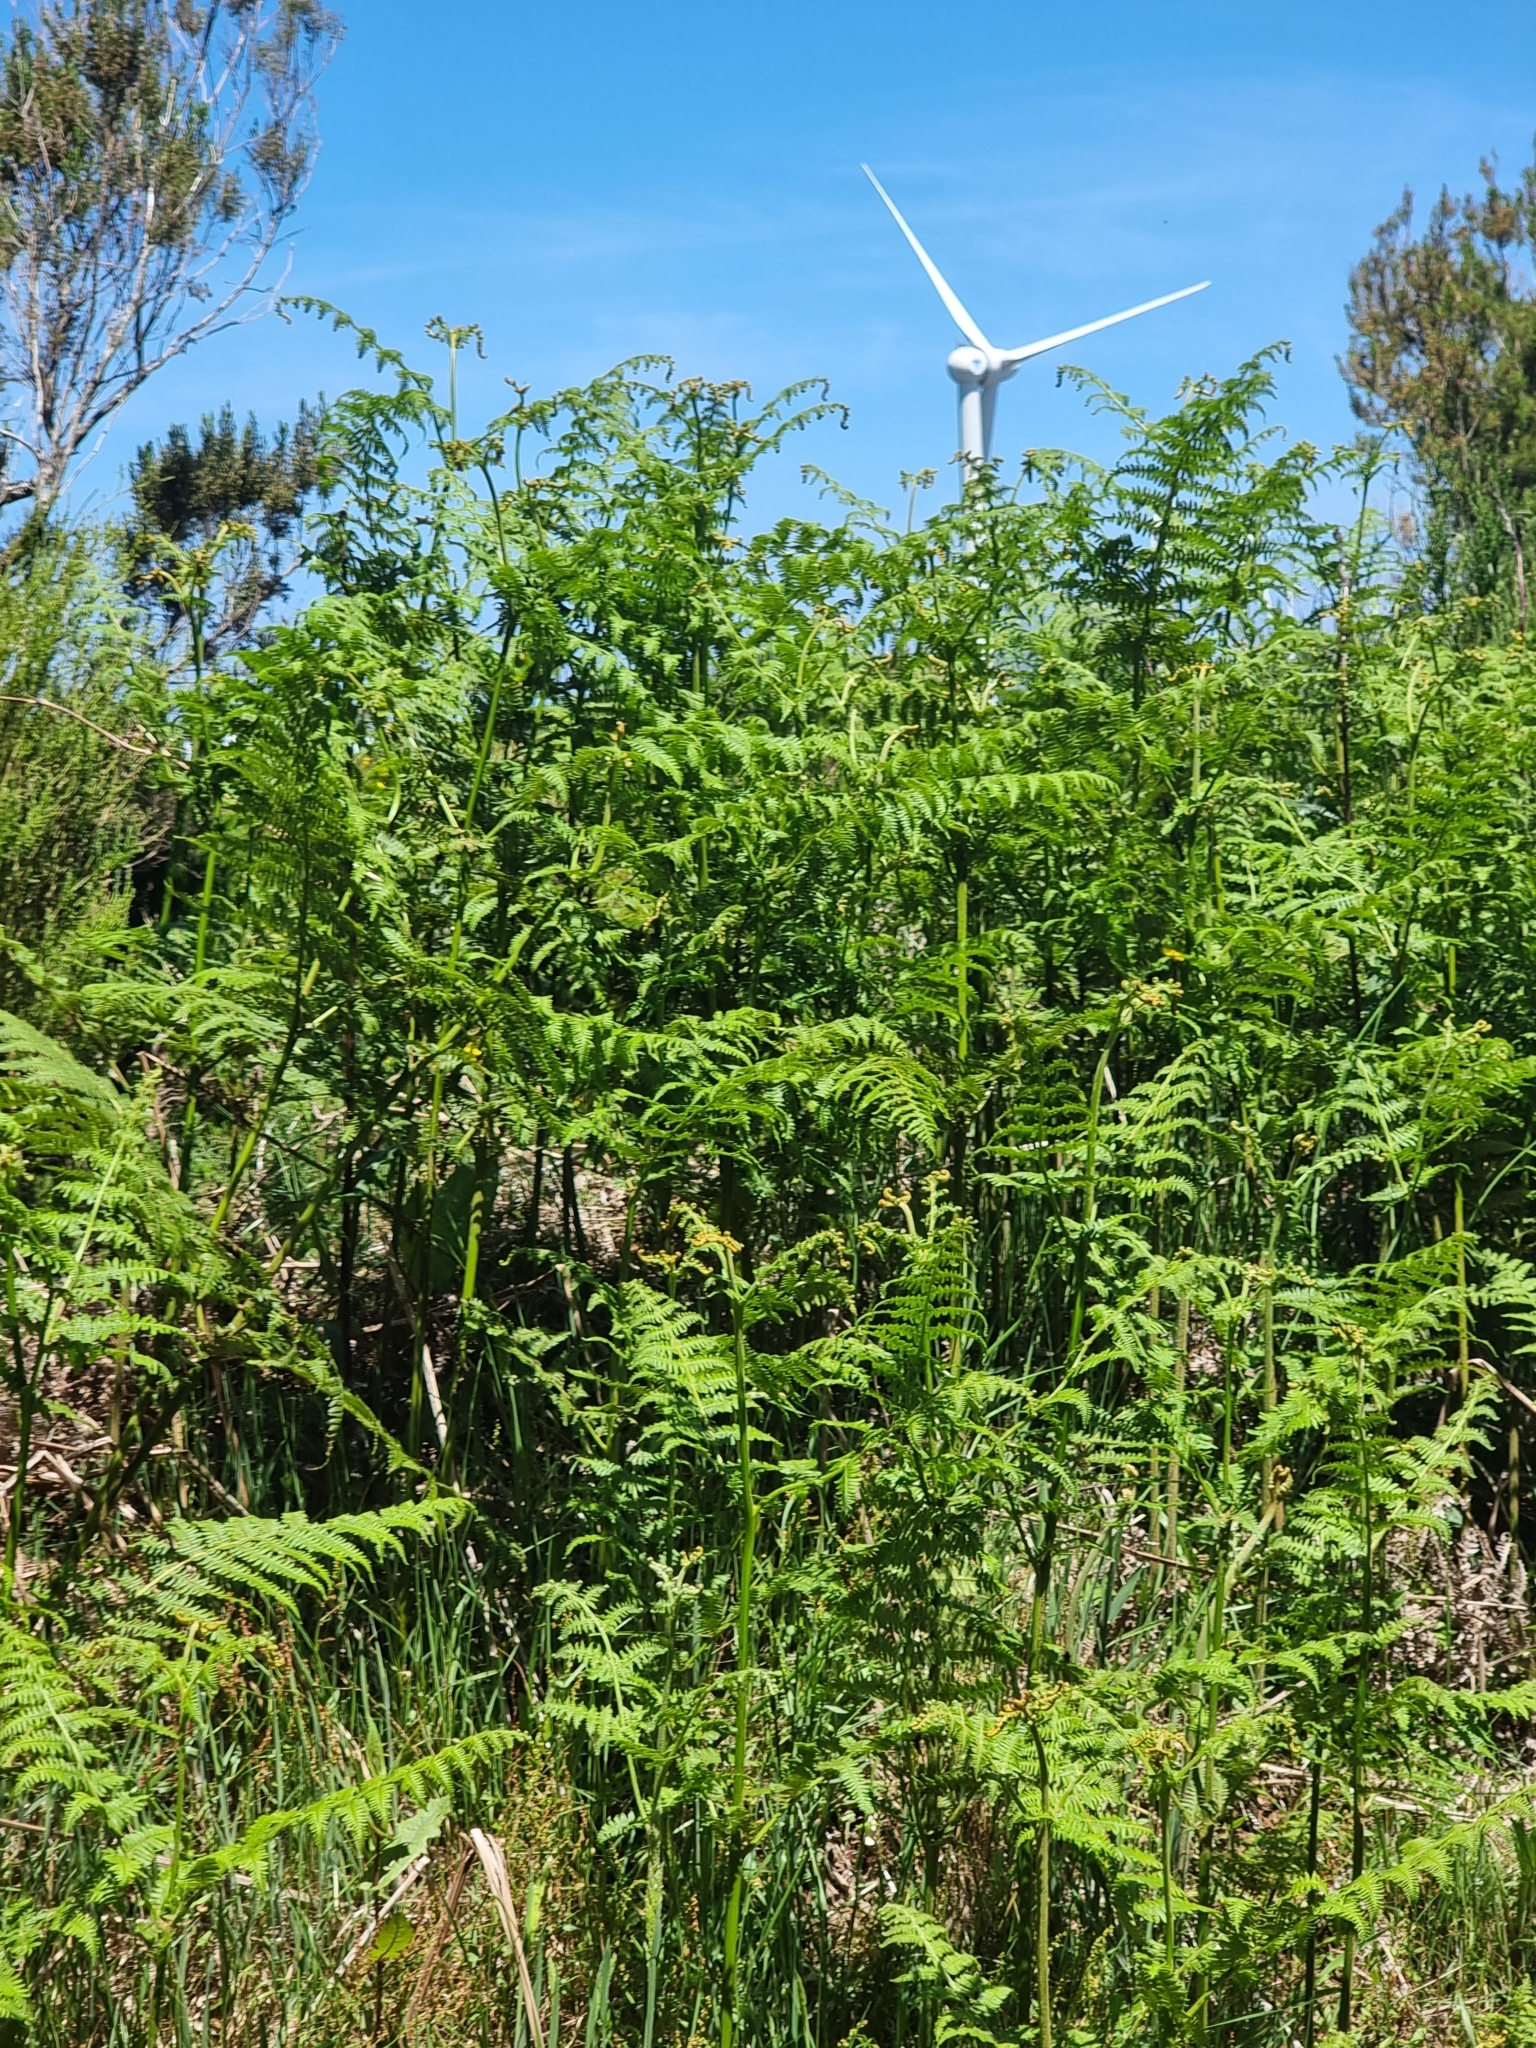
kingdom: Plantae
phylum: Tracheophyta
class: Polypodiopsida
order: Polypodiales
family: Dennstaedtiaceae
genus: Pteridium
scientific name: Pteridium aquilinum
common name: Bracken
